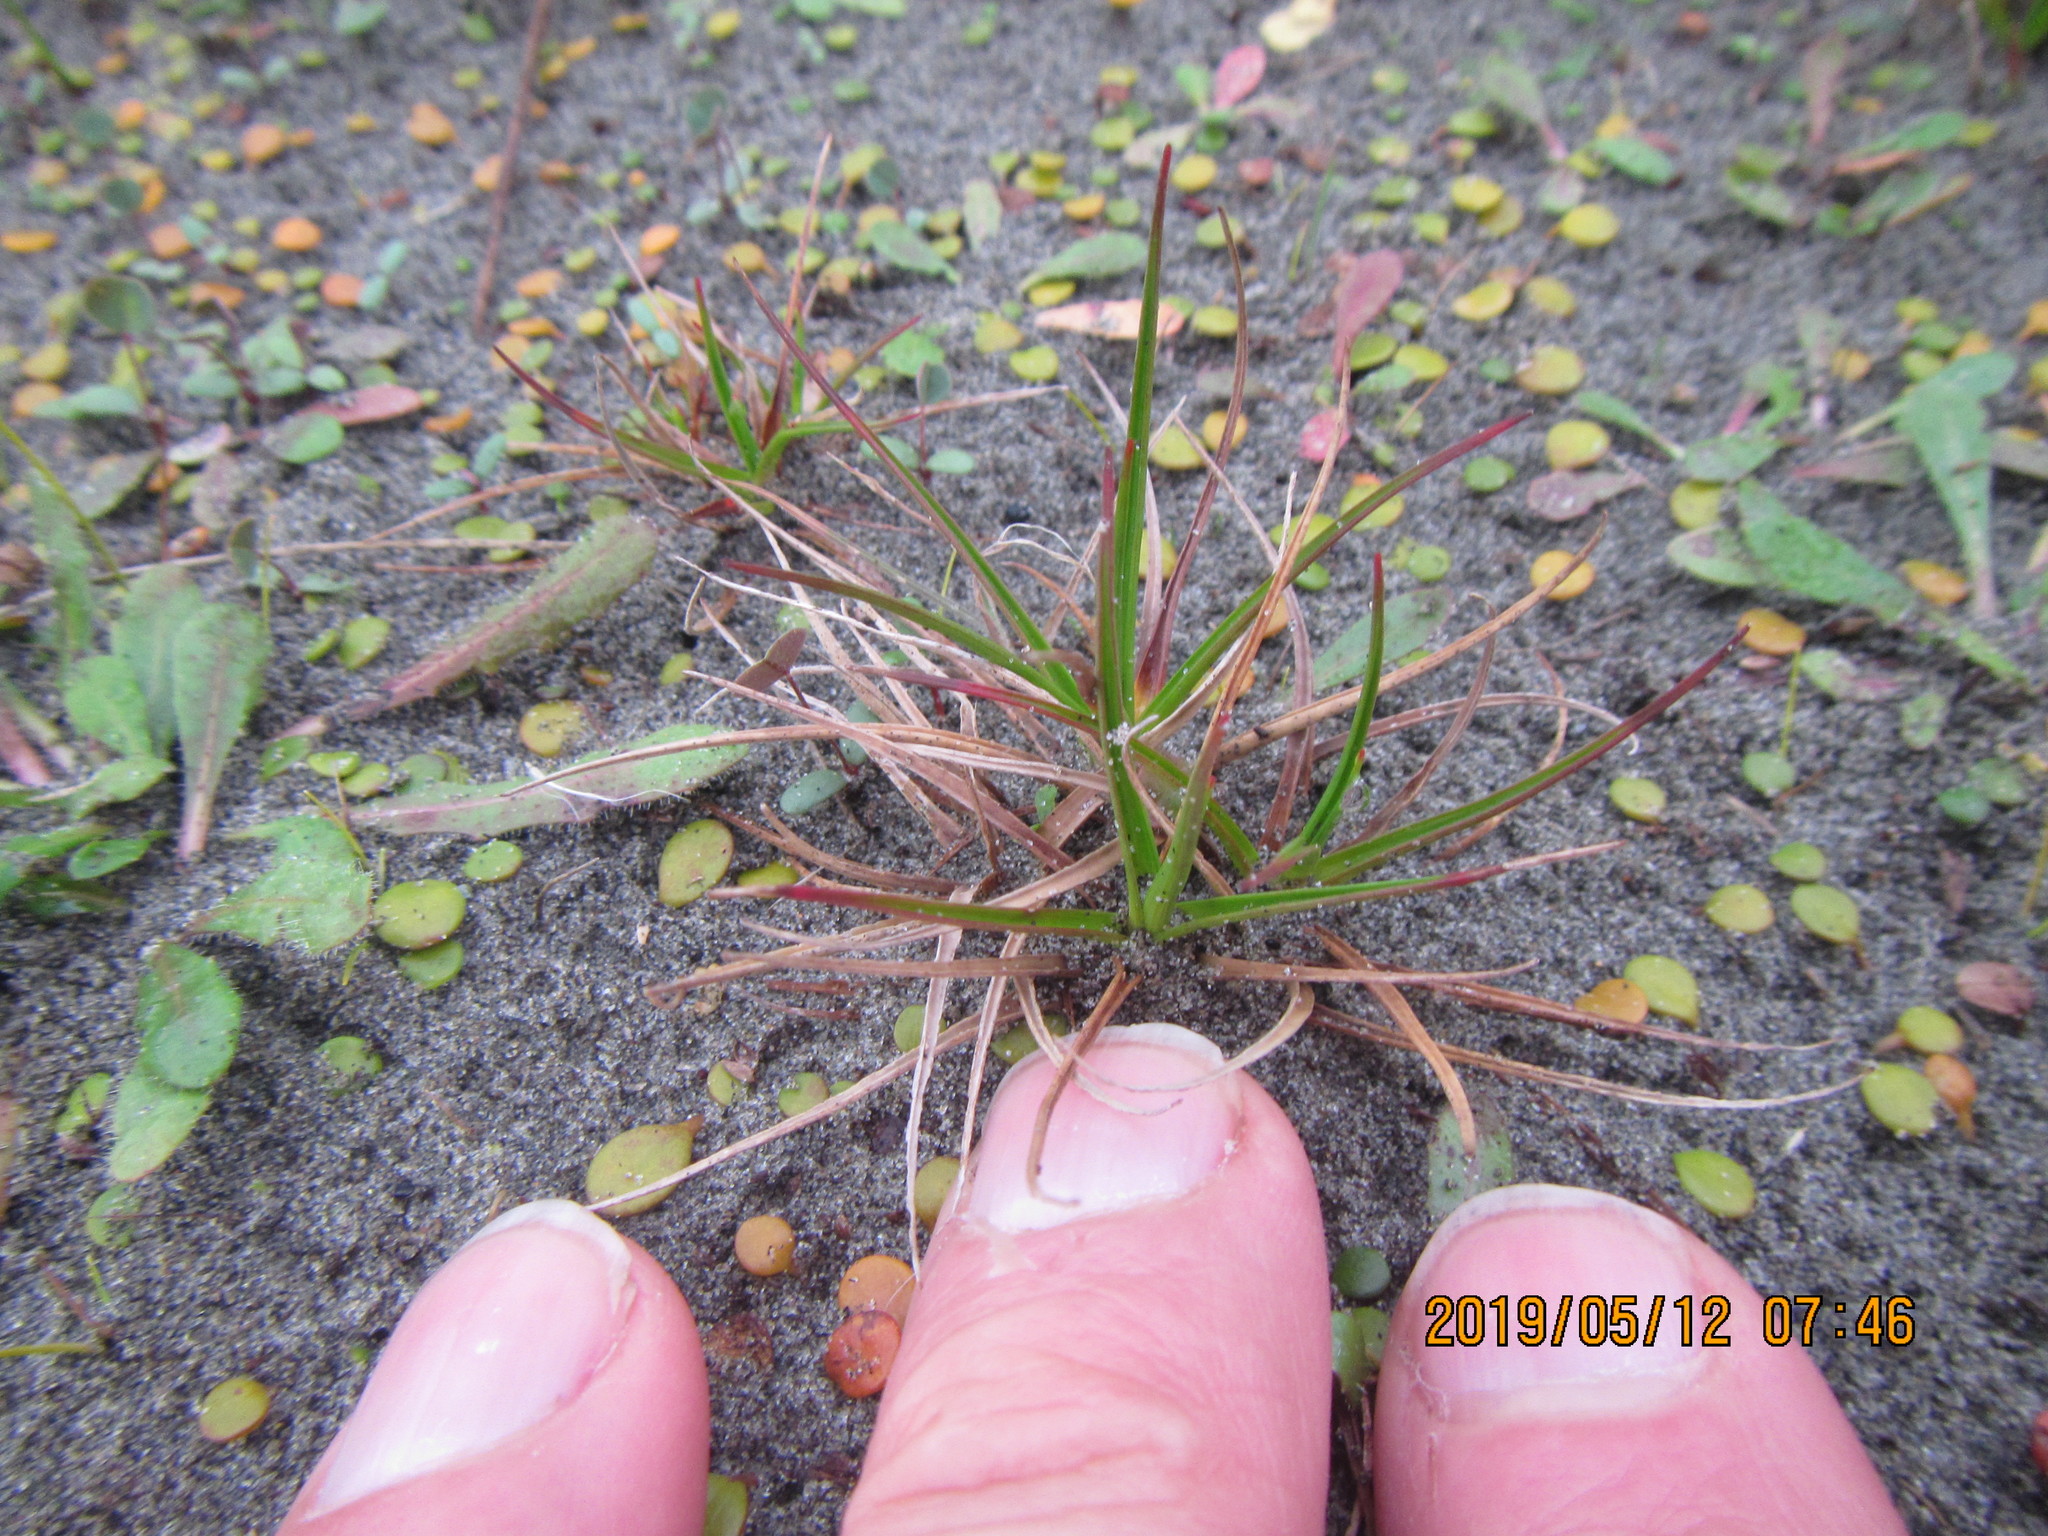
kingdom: Plantae
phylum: Tracheophyta
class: Liliopsida
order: Poales
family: Juncaceae
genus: Juncus
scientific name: Juncus caespiticius
